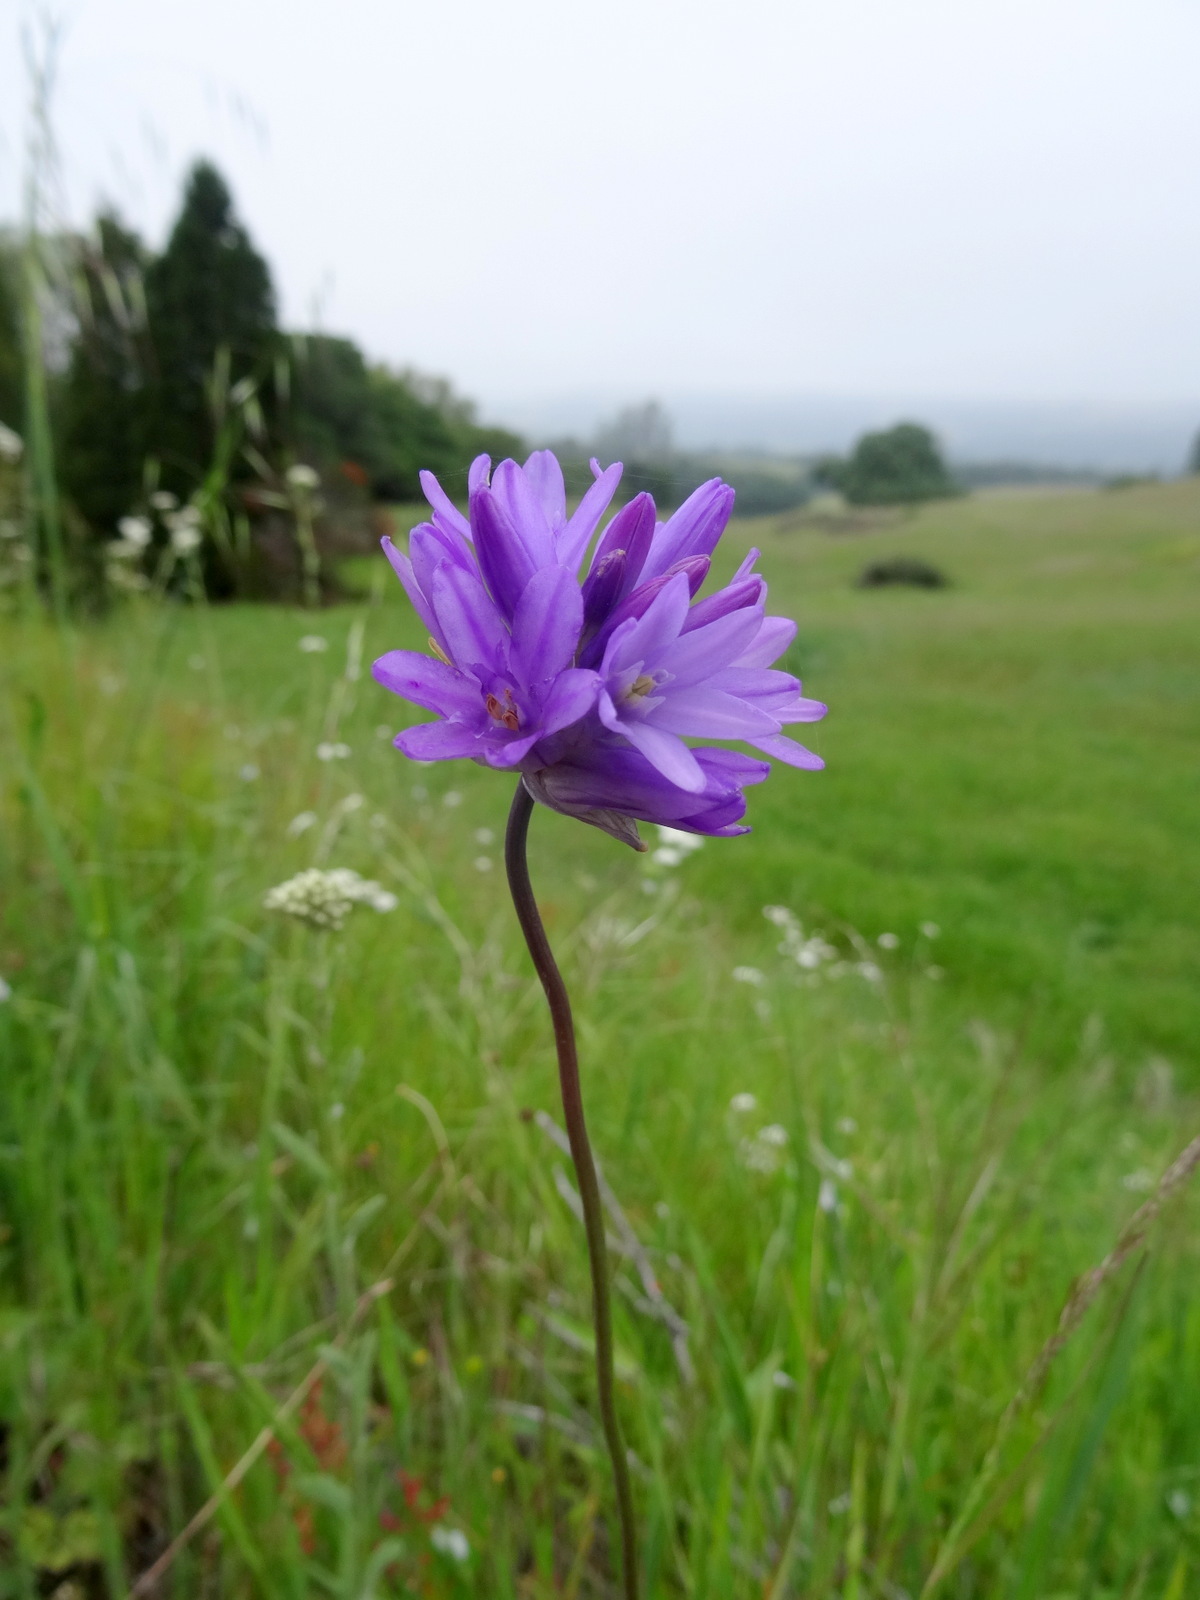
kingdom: Plantae
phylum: Tracheophyta
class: Liliopsida
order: Asparagales
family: Asparagaceae
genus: Dichelostemma
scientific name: Dichelostemma congestum
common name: Fork-tooth ookow
